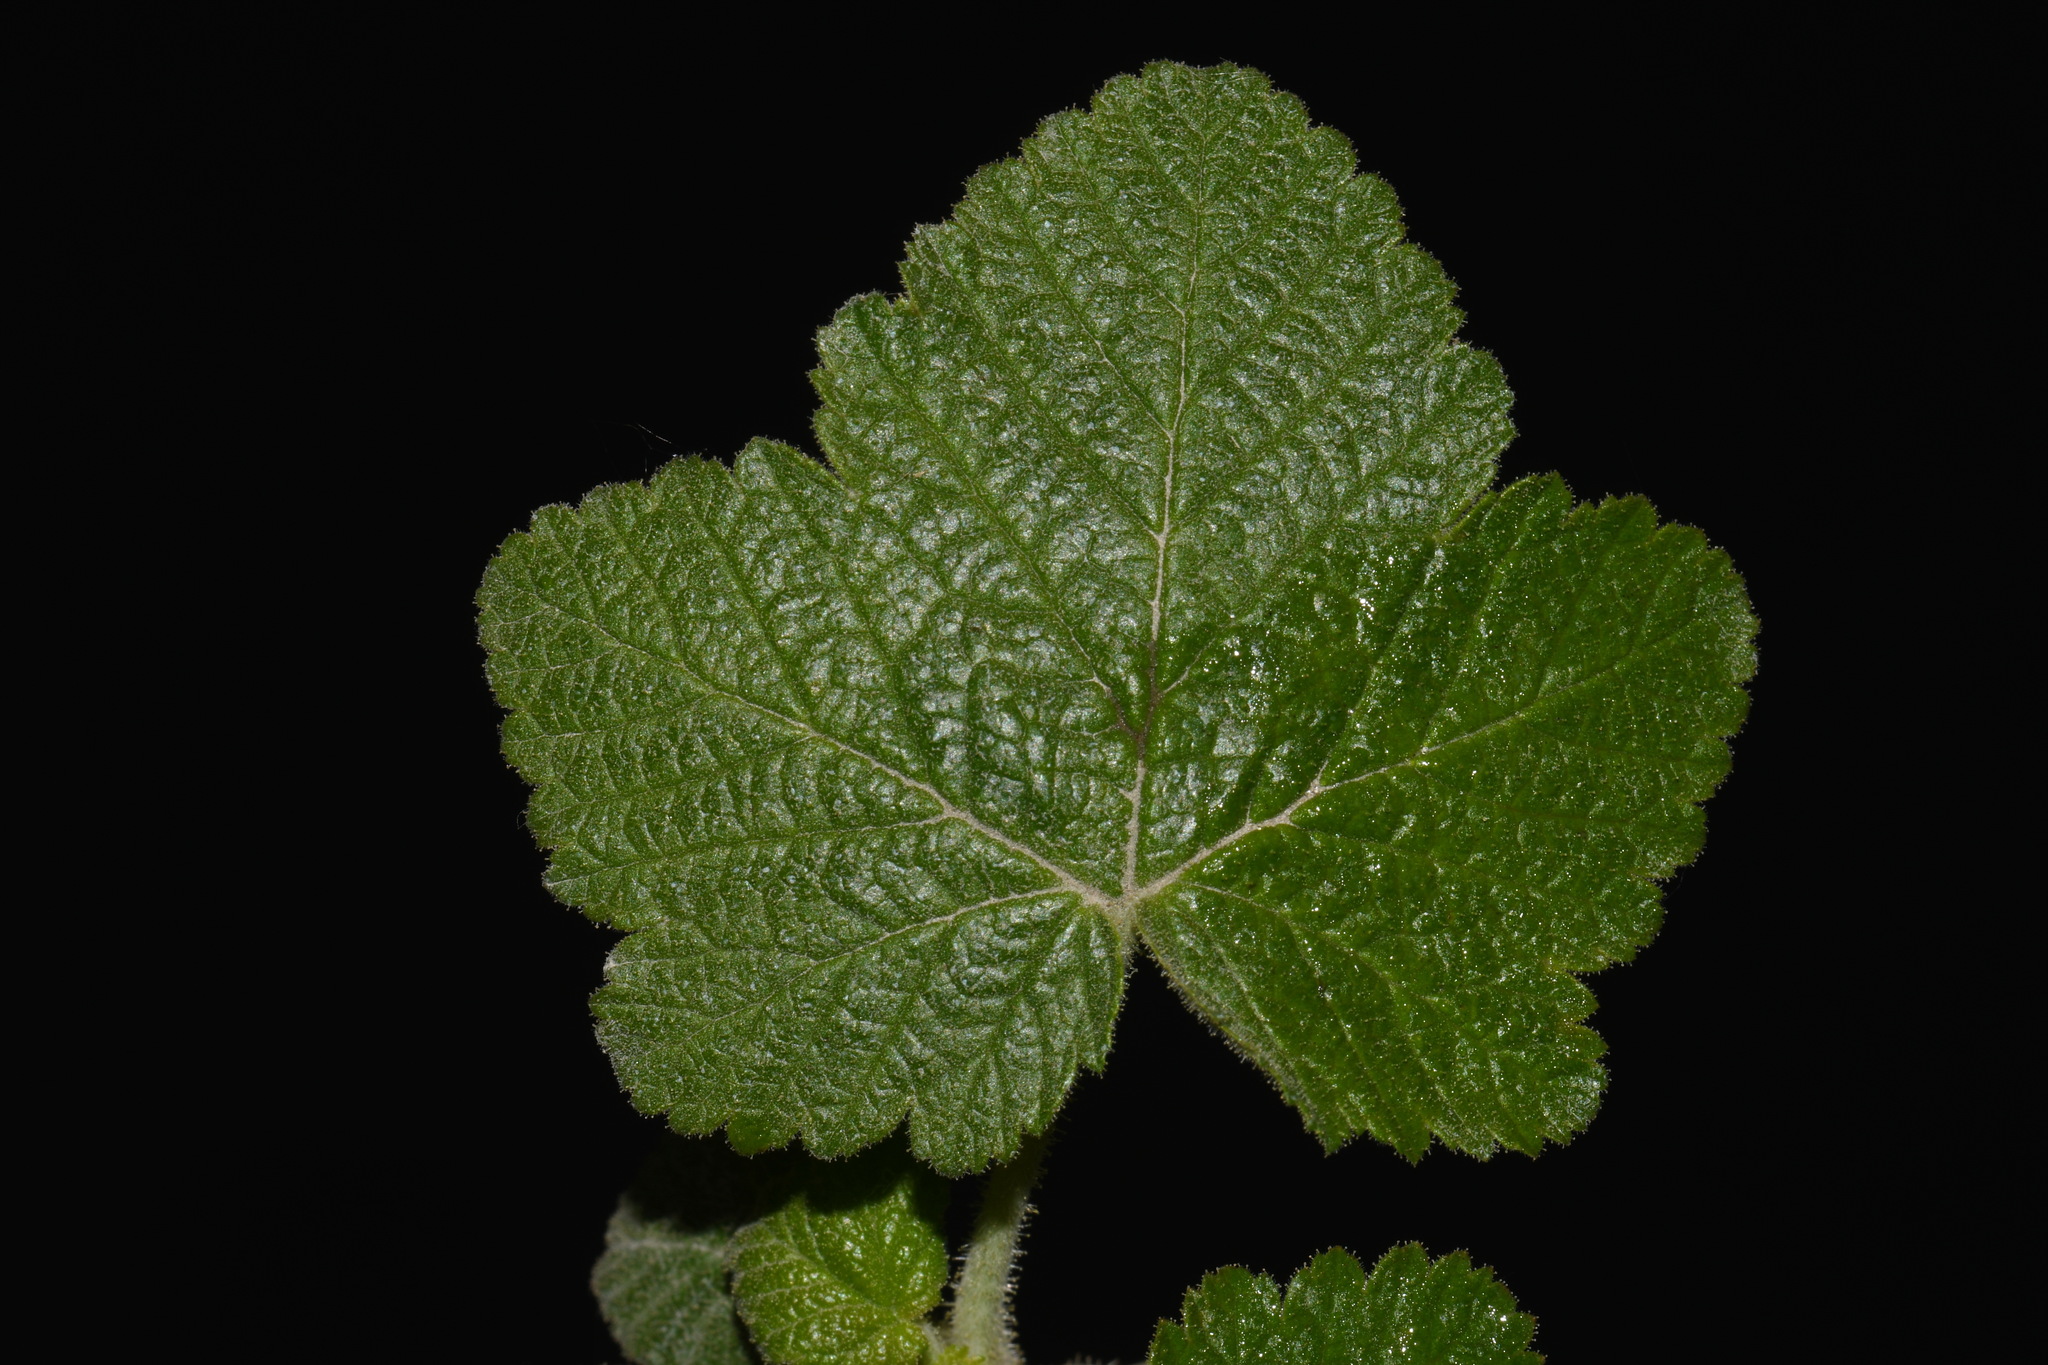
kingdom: Plantae
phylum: Tracheophyta
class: Magnoliopsida
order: Saxifragales
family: Grossulariaceae
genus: Ribes
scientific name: Ribes viscosissimum
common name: Sticky currant
